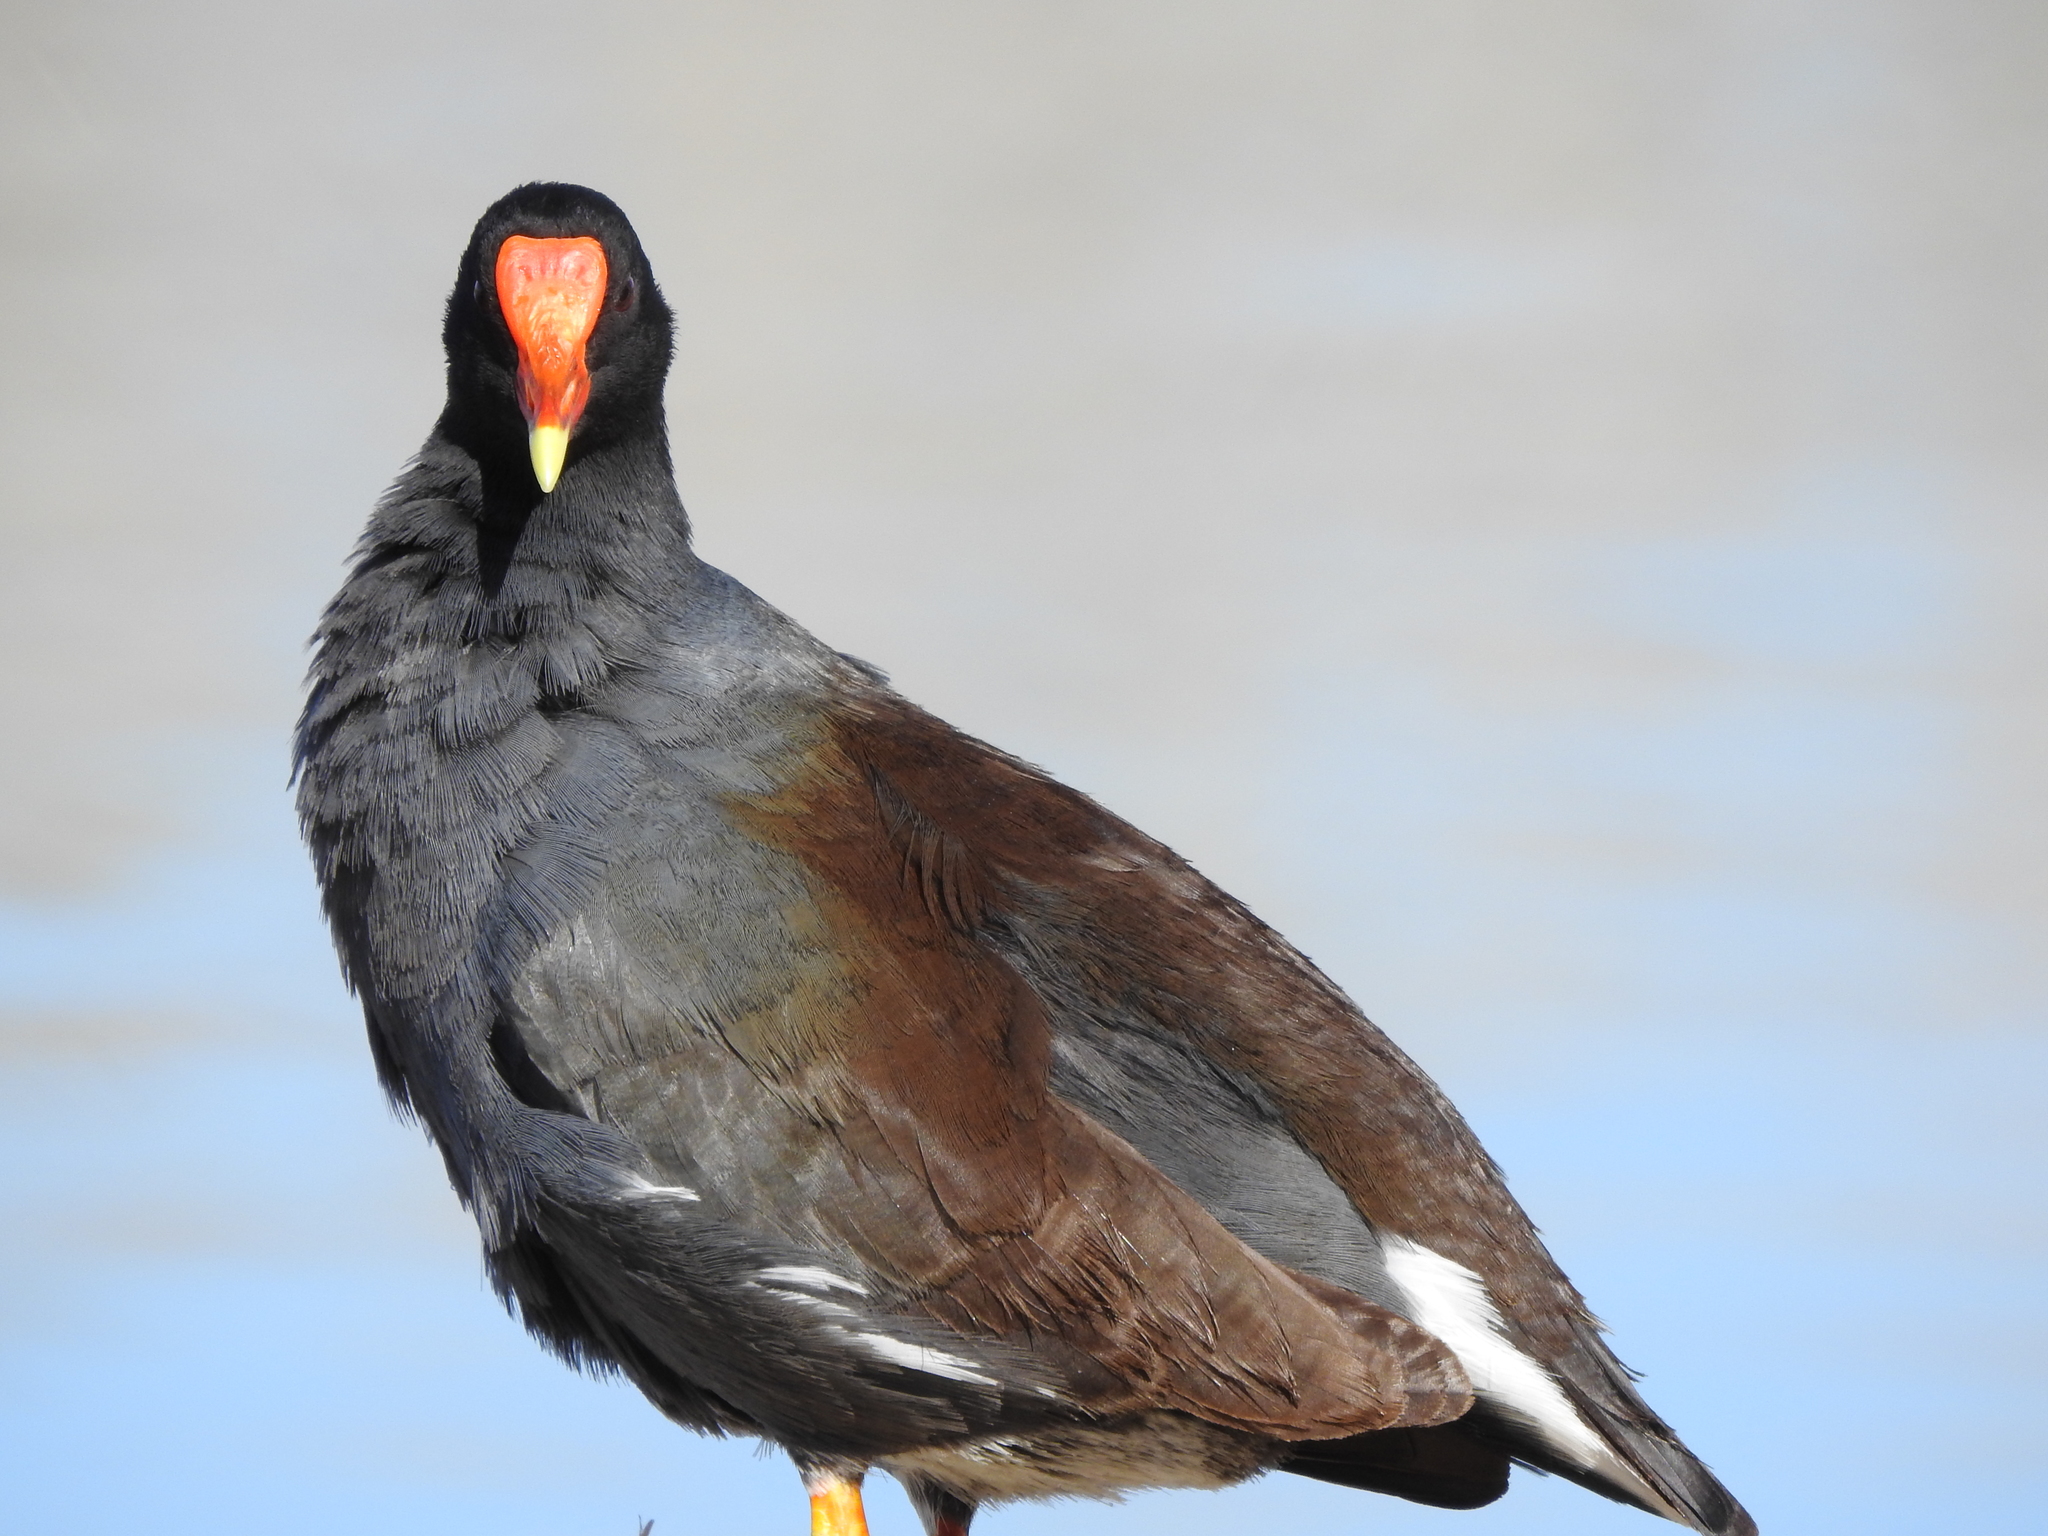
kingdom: Animalia
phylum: Chordata
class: Aves
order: Gruiformes
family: Rallidae
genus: Gallinula
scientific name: Gallinula chloropus
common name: Common moorhen
